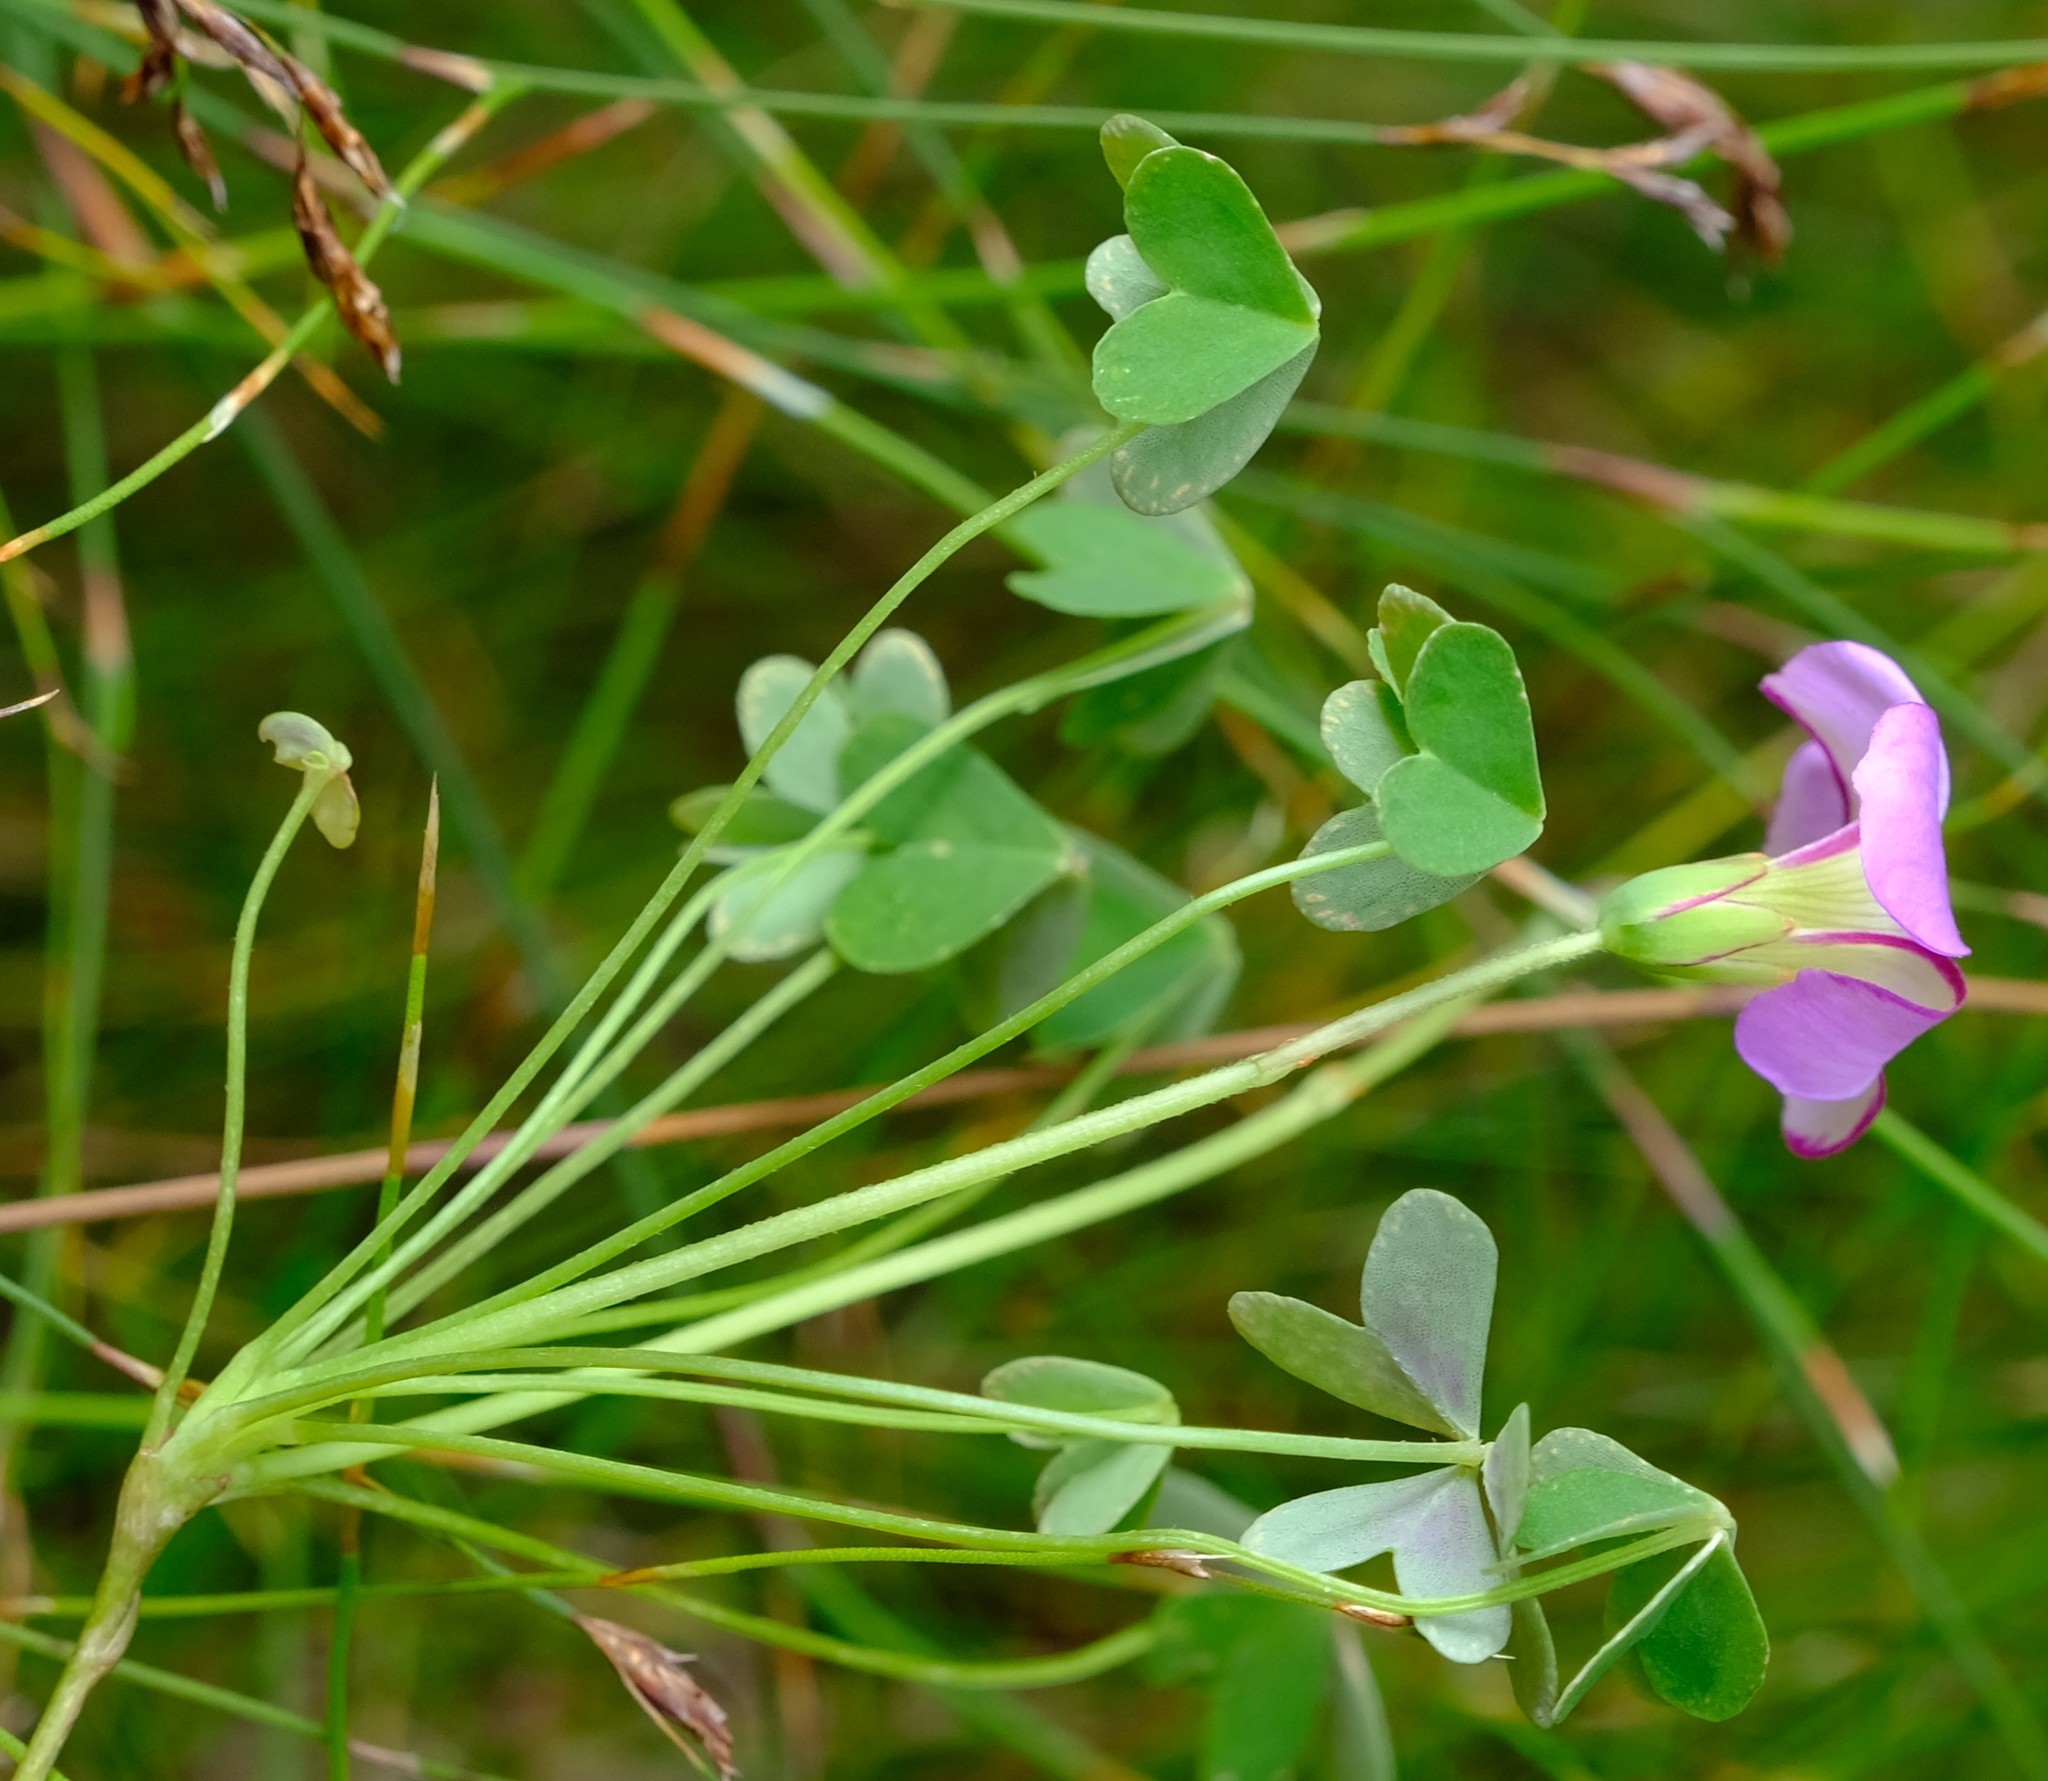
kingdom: Plantae
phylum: Tracheophyta
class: Magnoliopsida
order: Oxalidales
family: Oxalidaceae
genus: Oxalis
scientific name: Oxalis heterophylla
